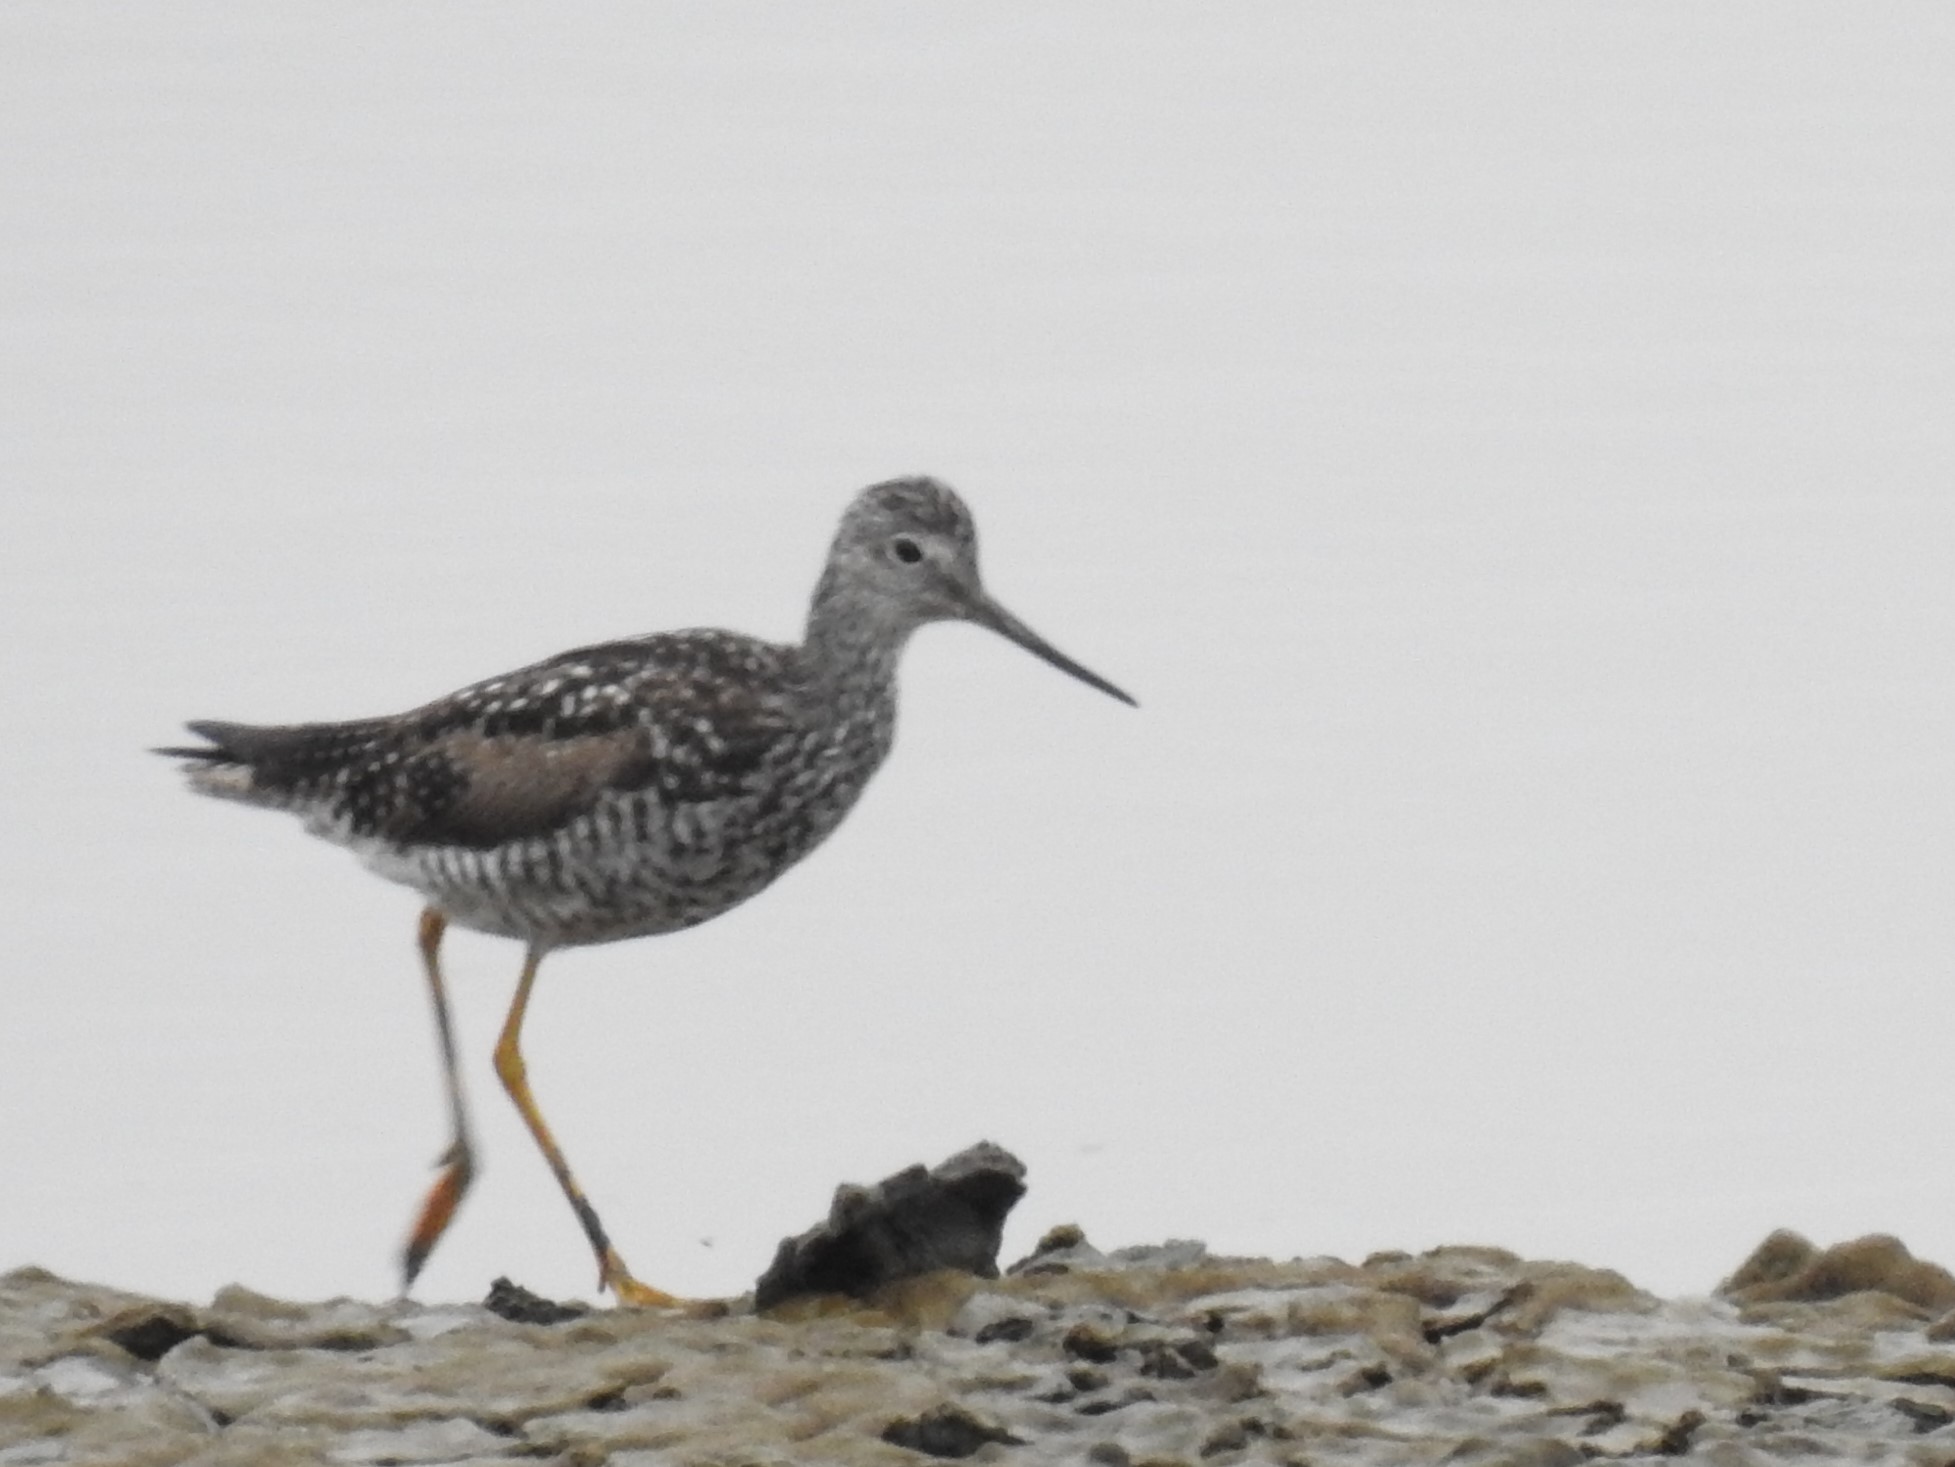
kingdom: Animalia
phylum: Chordata
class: Aves
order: Charadriiformes
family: Scolopacidae
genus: Tringa
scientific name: Tringa melanoleuca
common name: Greater yellowlegs
